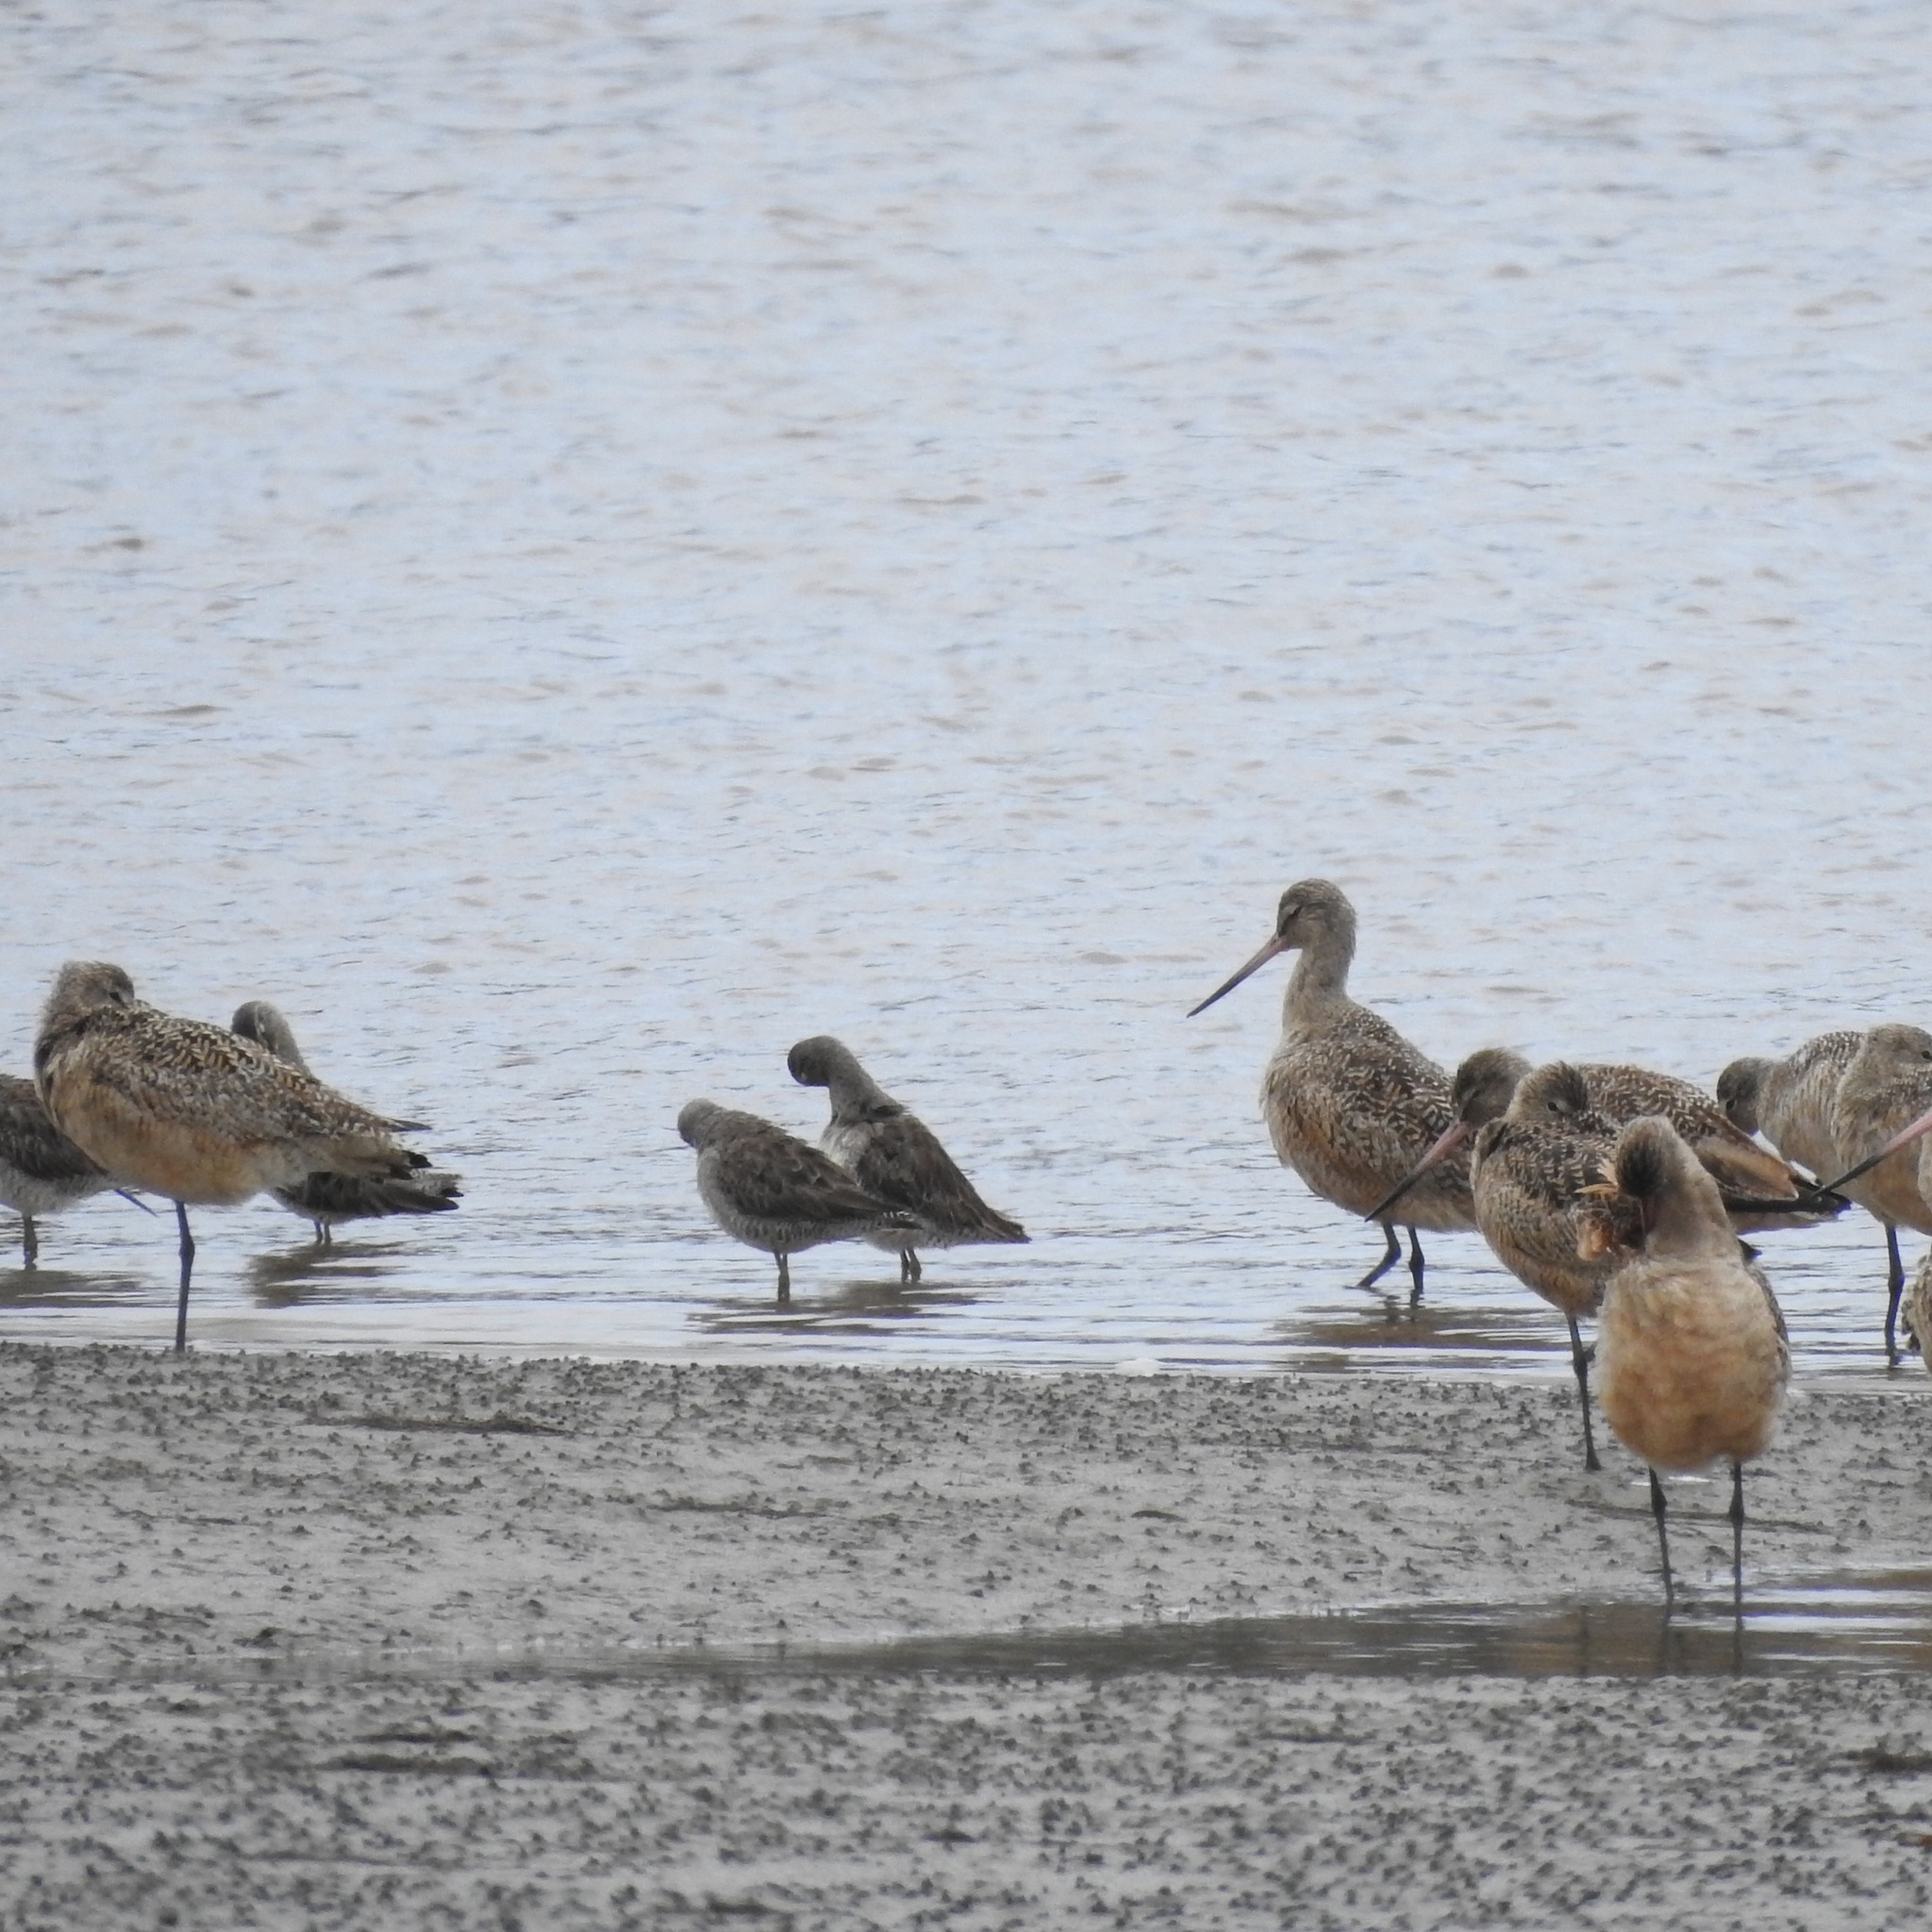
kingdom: Animalia
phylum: Chordata
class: Aves
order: Charadriiformes
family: Scolopacidae
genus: Limosa
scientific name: Limosa fedoa
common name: Marbled godwit
